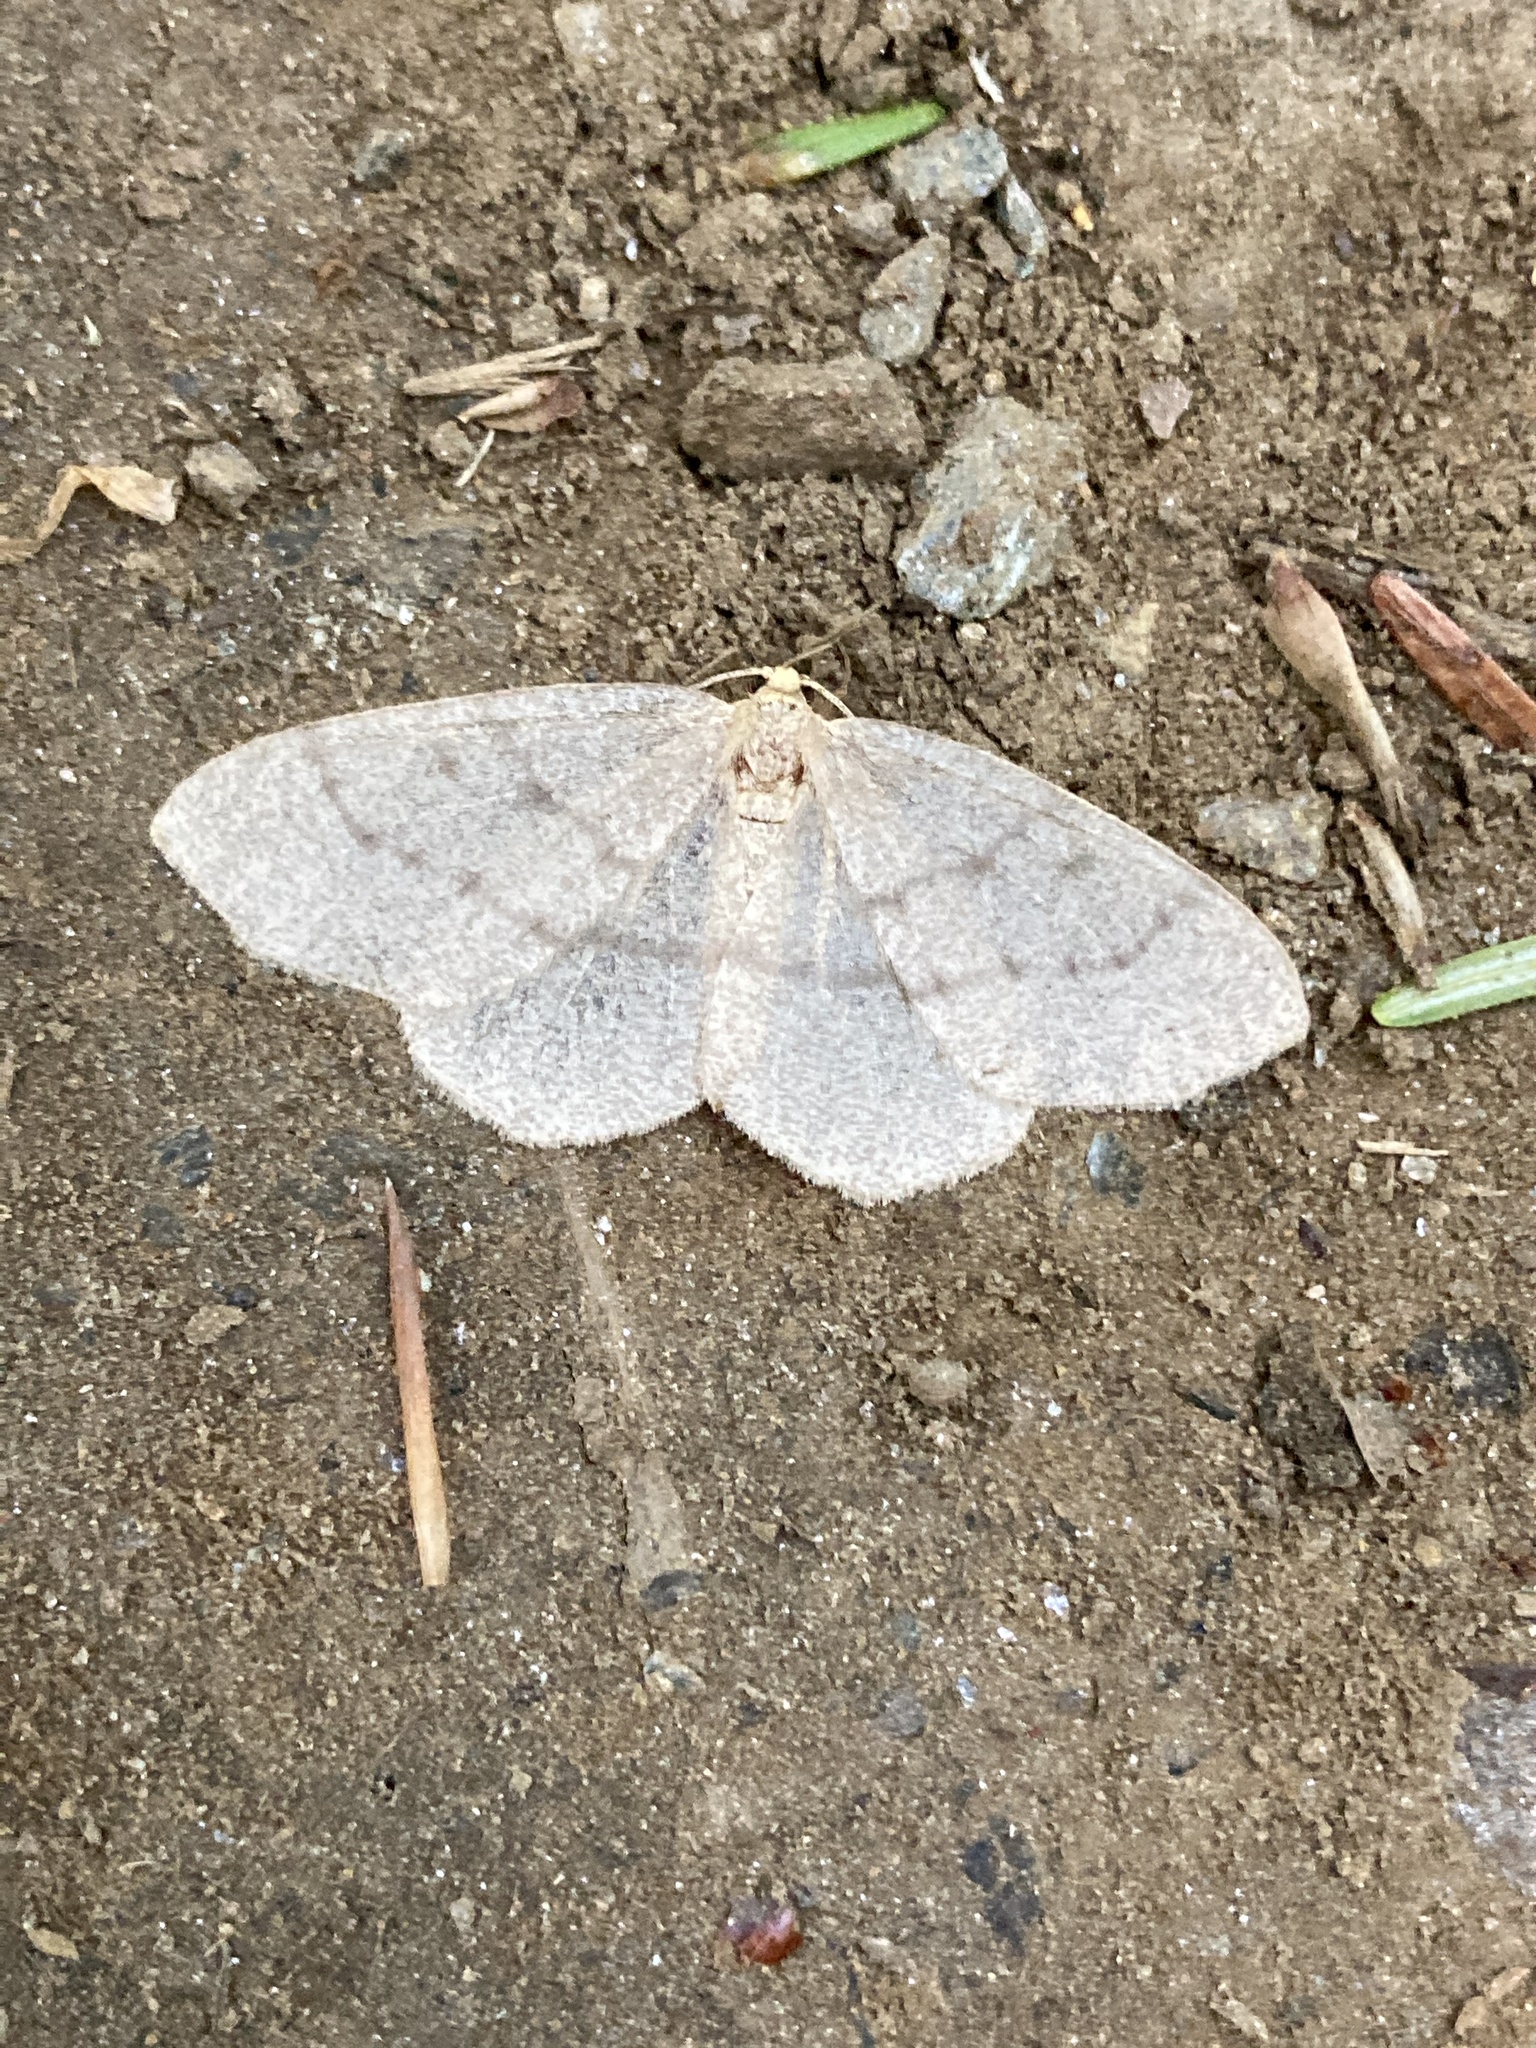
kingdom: Animalia
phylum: Arthropoda
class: Insecta
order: Lepidoptera
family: Geometridae
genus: Lambdina
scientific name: Lambdina fervidaria
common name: Curve-lined looper moth
